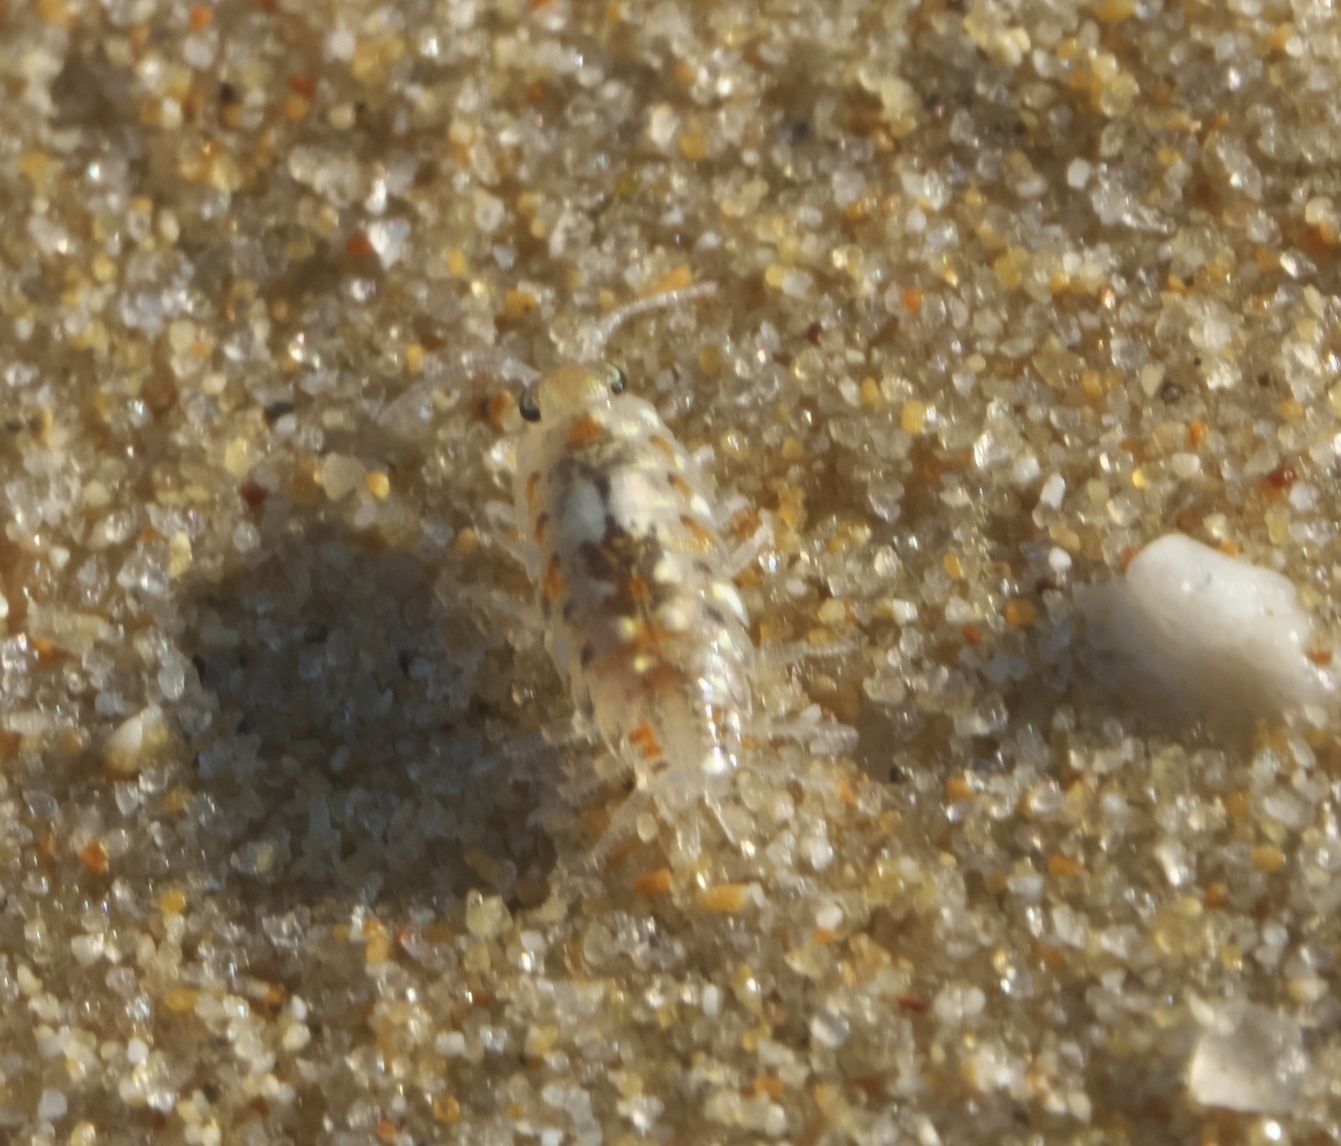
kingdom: Animalia
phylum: Arthropoda
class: Malacostraca
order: Isopoda
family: Scyphacidae
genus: Scyphax
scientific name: Scyphax ornatus
